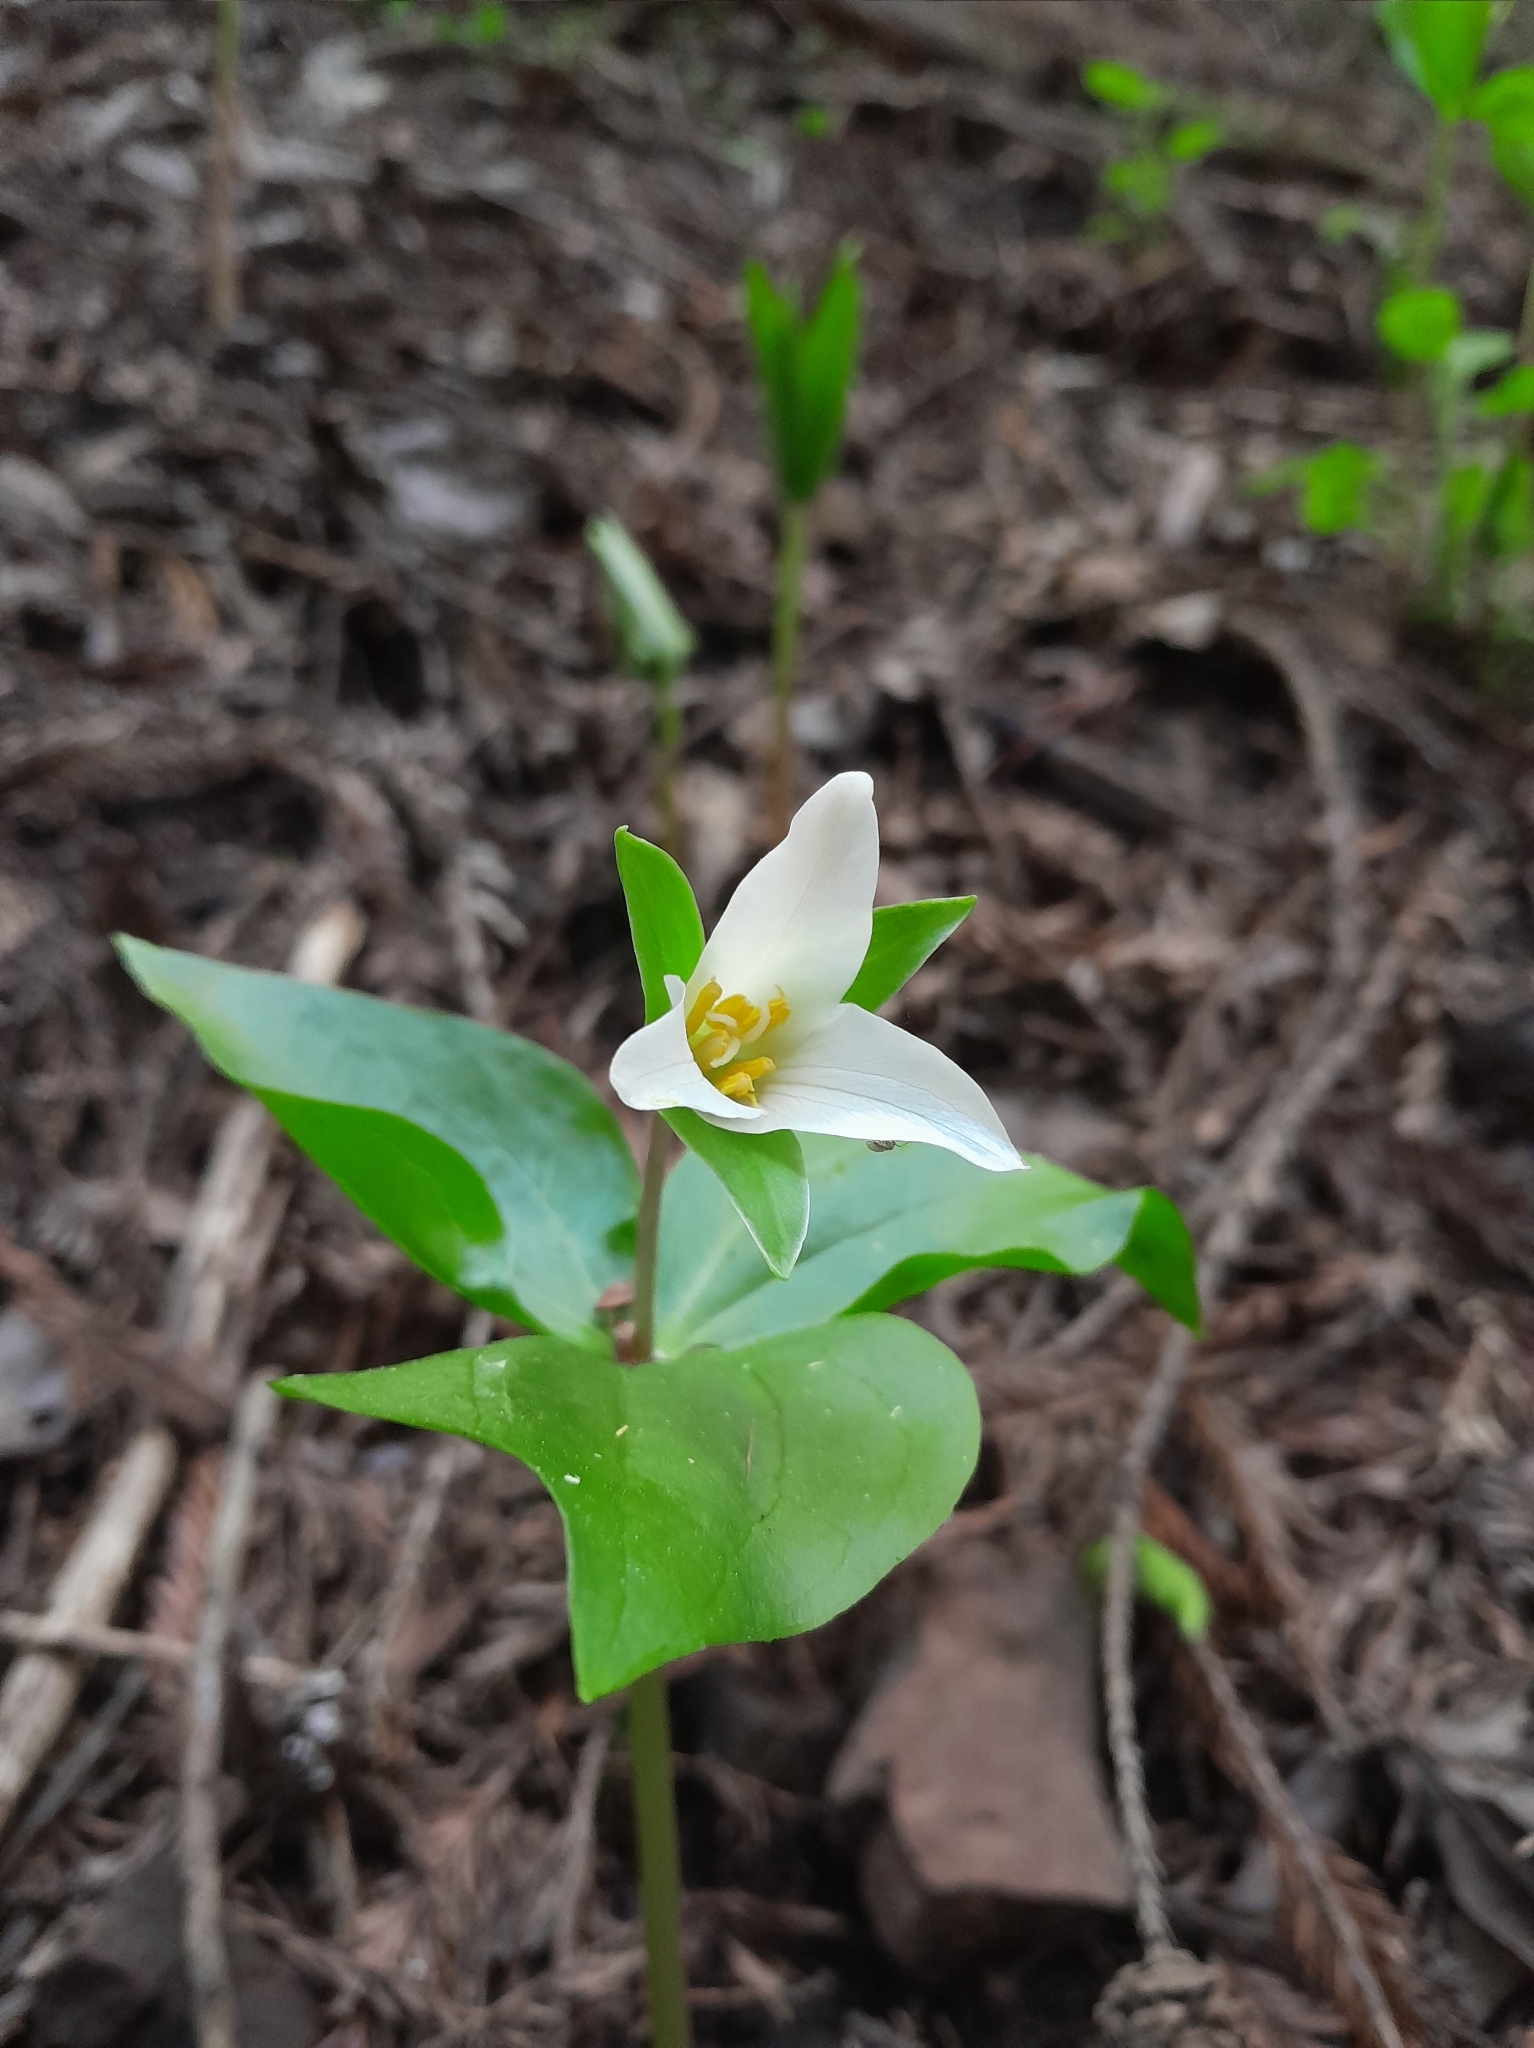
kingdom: Plantae
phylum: Tracheophyta
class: Liliopsida
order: Liliales
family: Melanthiaceae
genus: Trillium
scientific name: Trillium ovatum
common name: Pacific trillium
